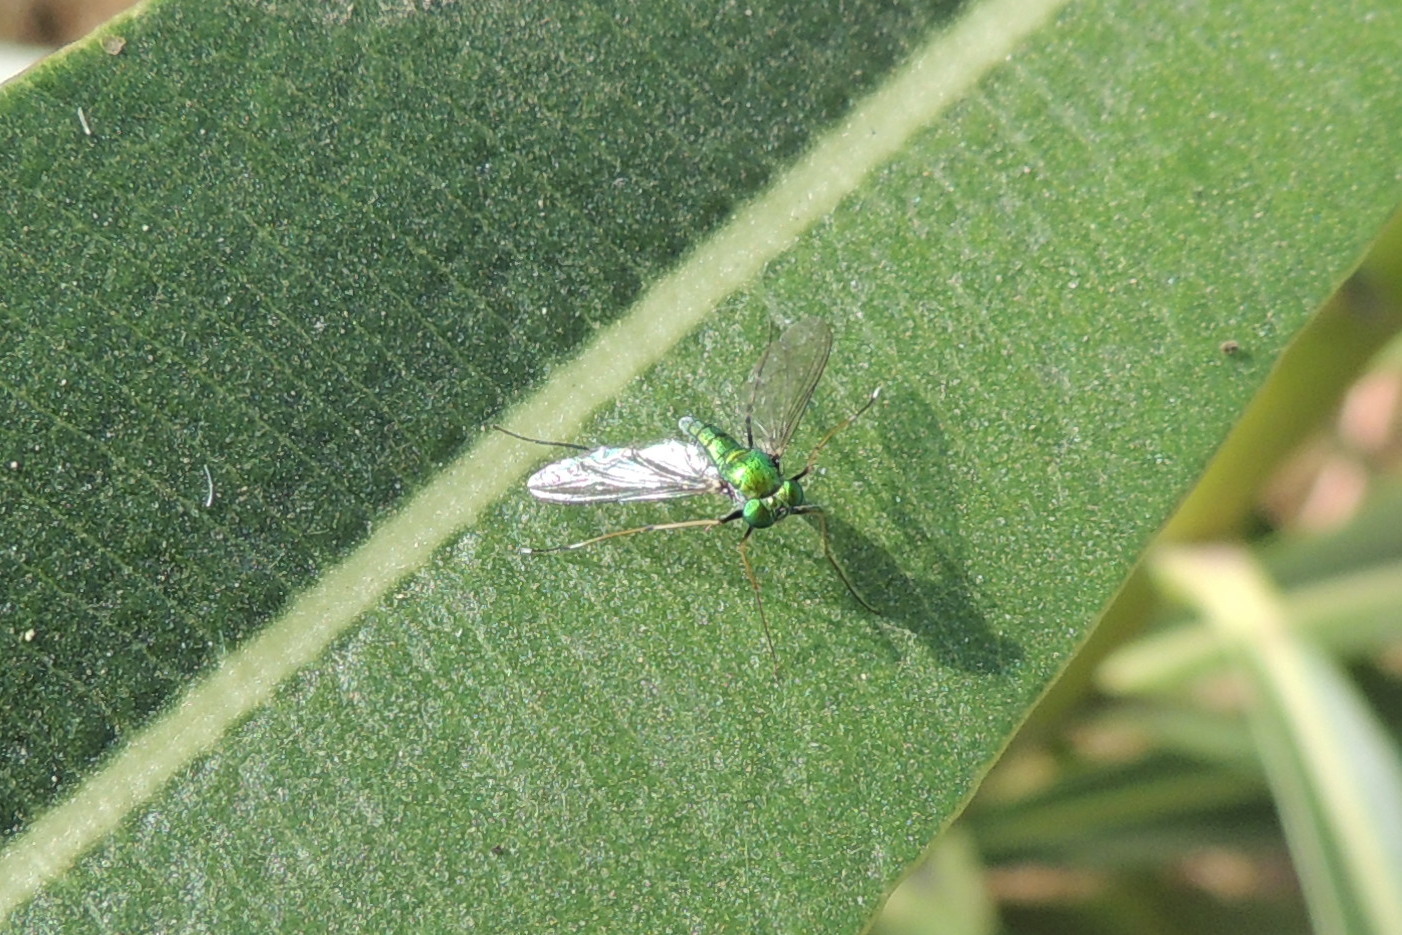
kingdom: Animalia
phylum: Arthropoda
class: Insecta
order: Diptera
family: Dolichopodidae
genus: Chrysosoma
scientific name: Chrysosoma leucopogon
